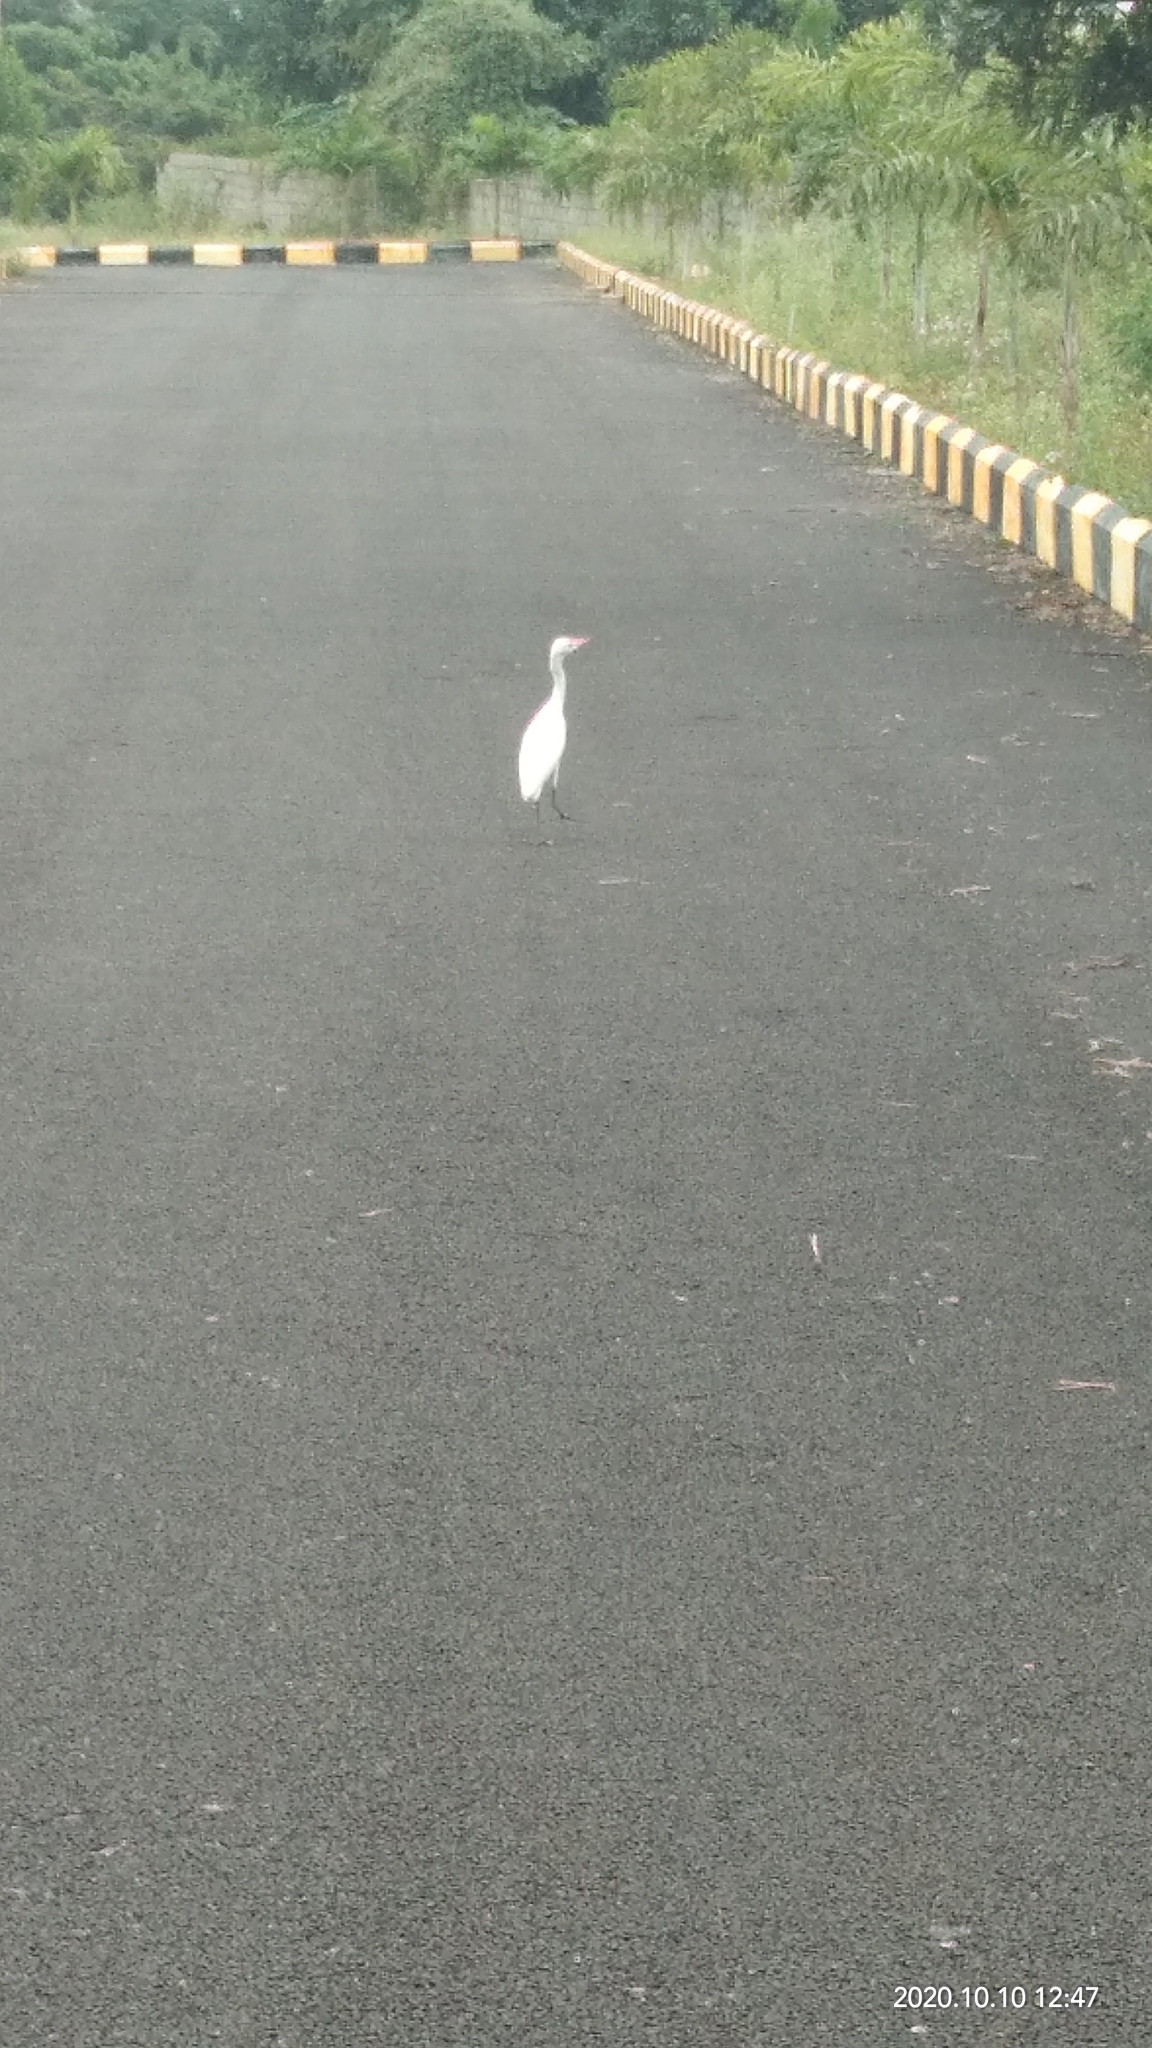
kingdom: Animalia
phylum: Chordata
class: Aves
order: Pelecaniformes
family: Ardeidae
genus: Bubulcus
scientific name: Bubulcus coromandus
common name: Eastern cattle egret
